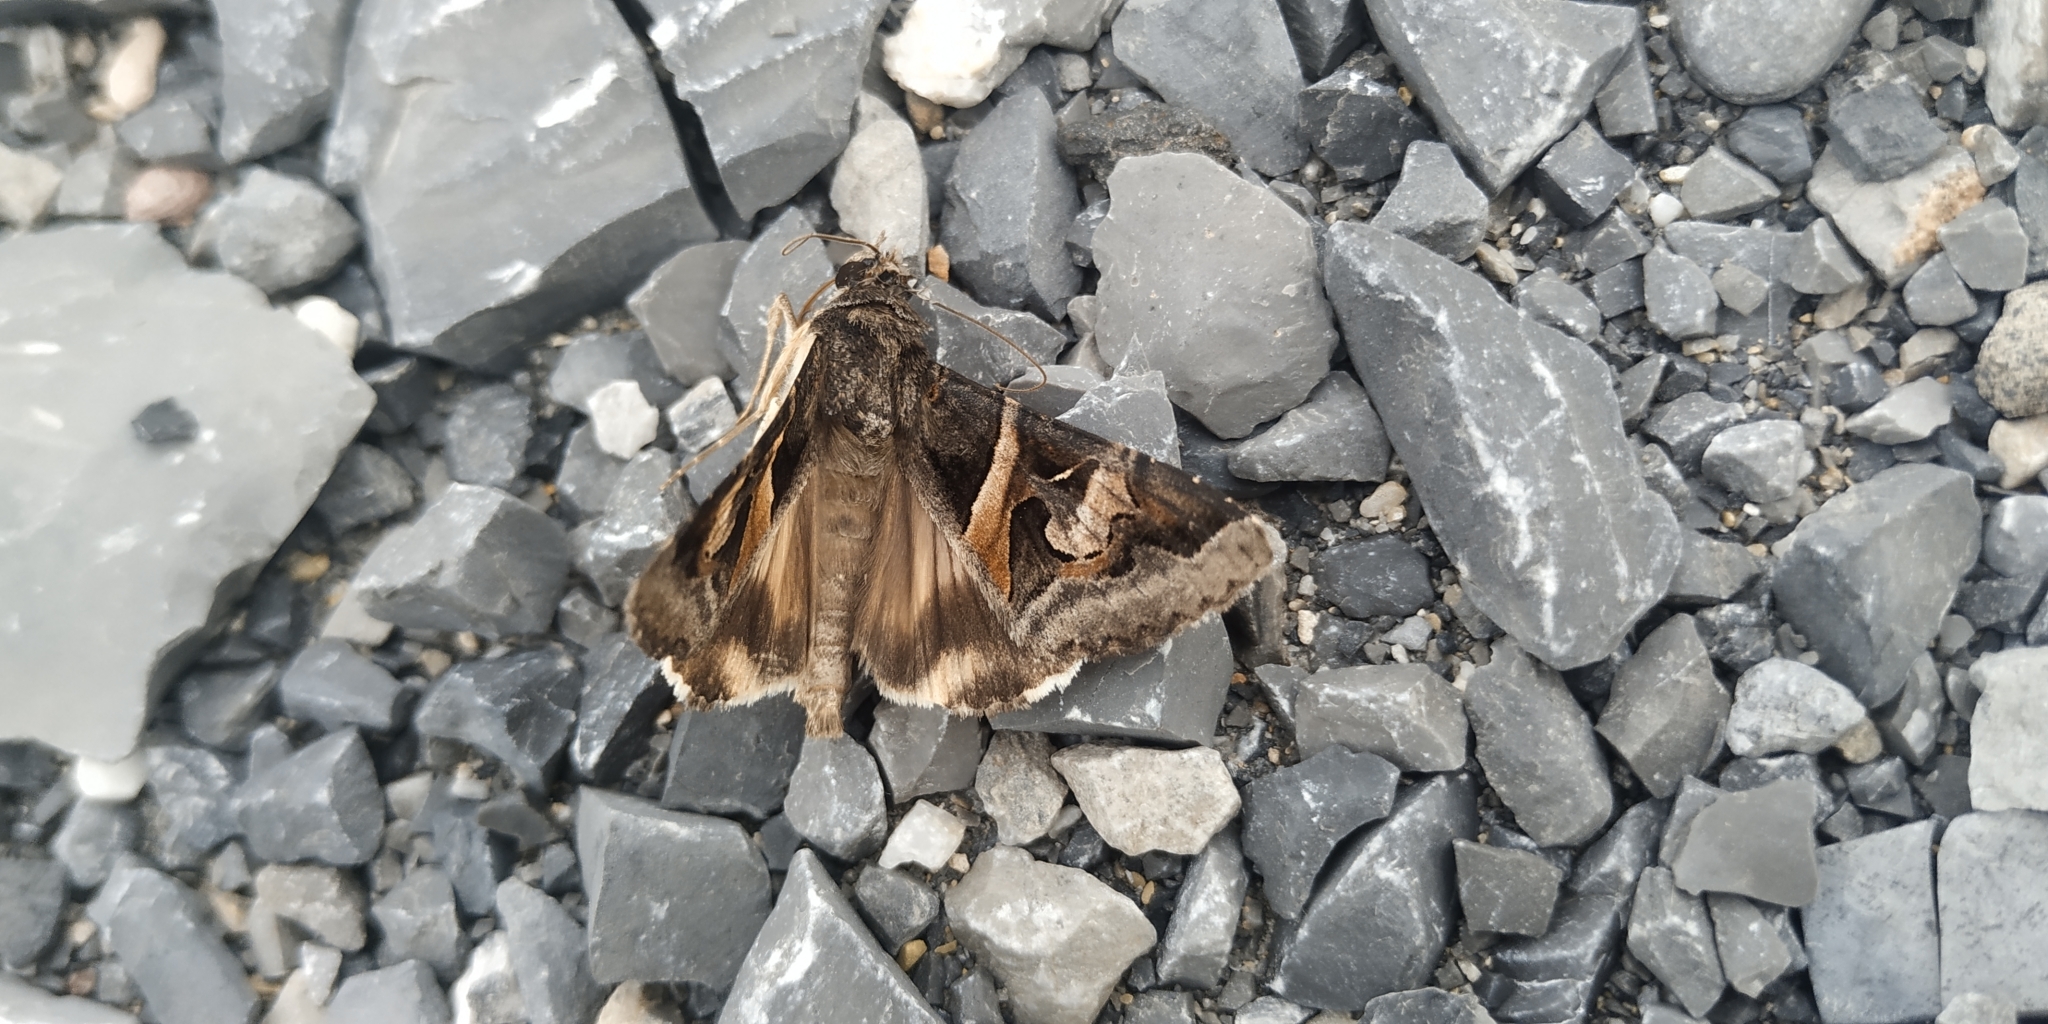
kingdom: Animalia
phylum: Arthropoda
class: Insecta
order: Lepidoptera
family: Erebidae
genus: Melipotis
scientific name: Melipotis indomita
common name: Moth
